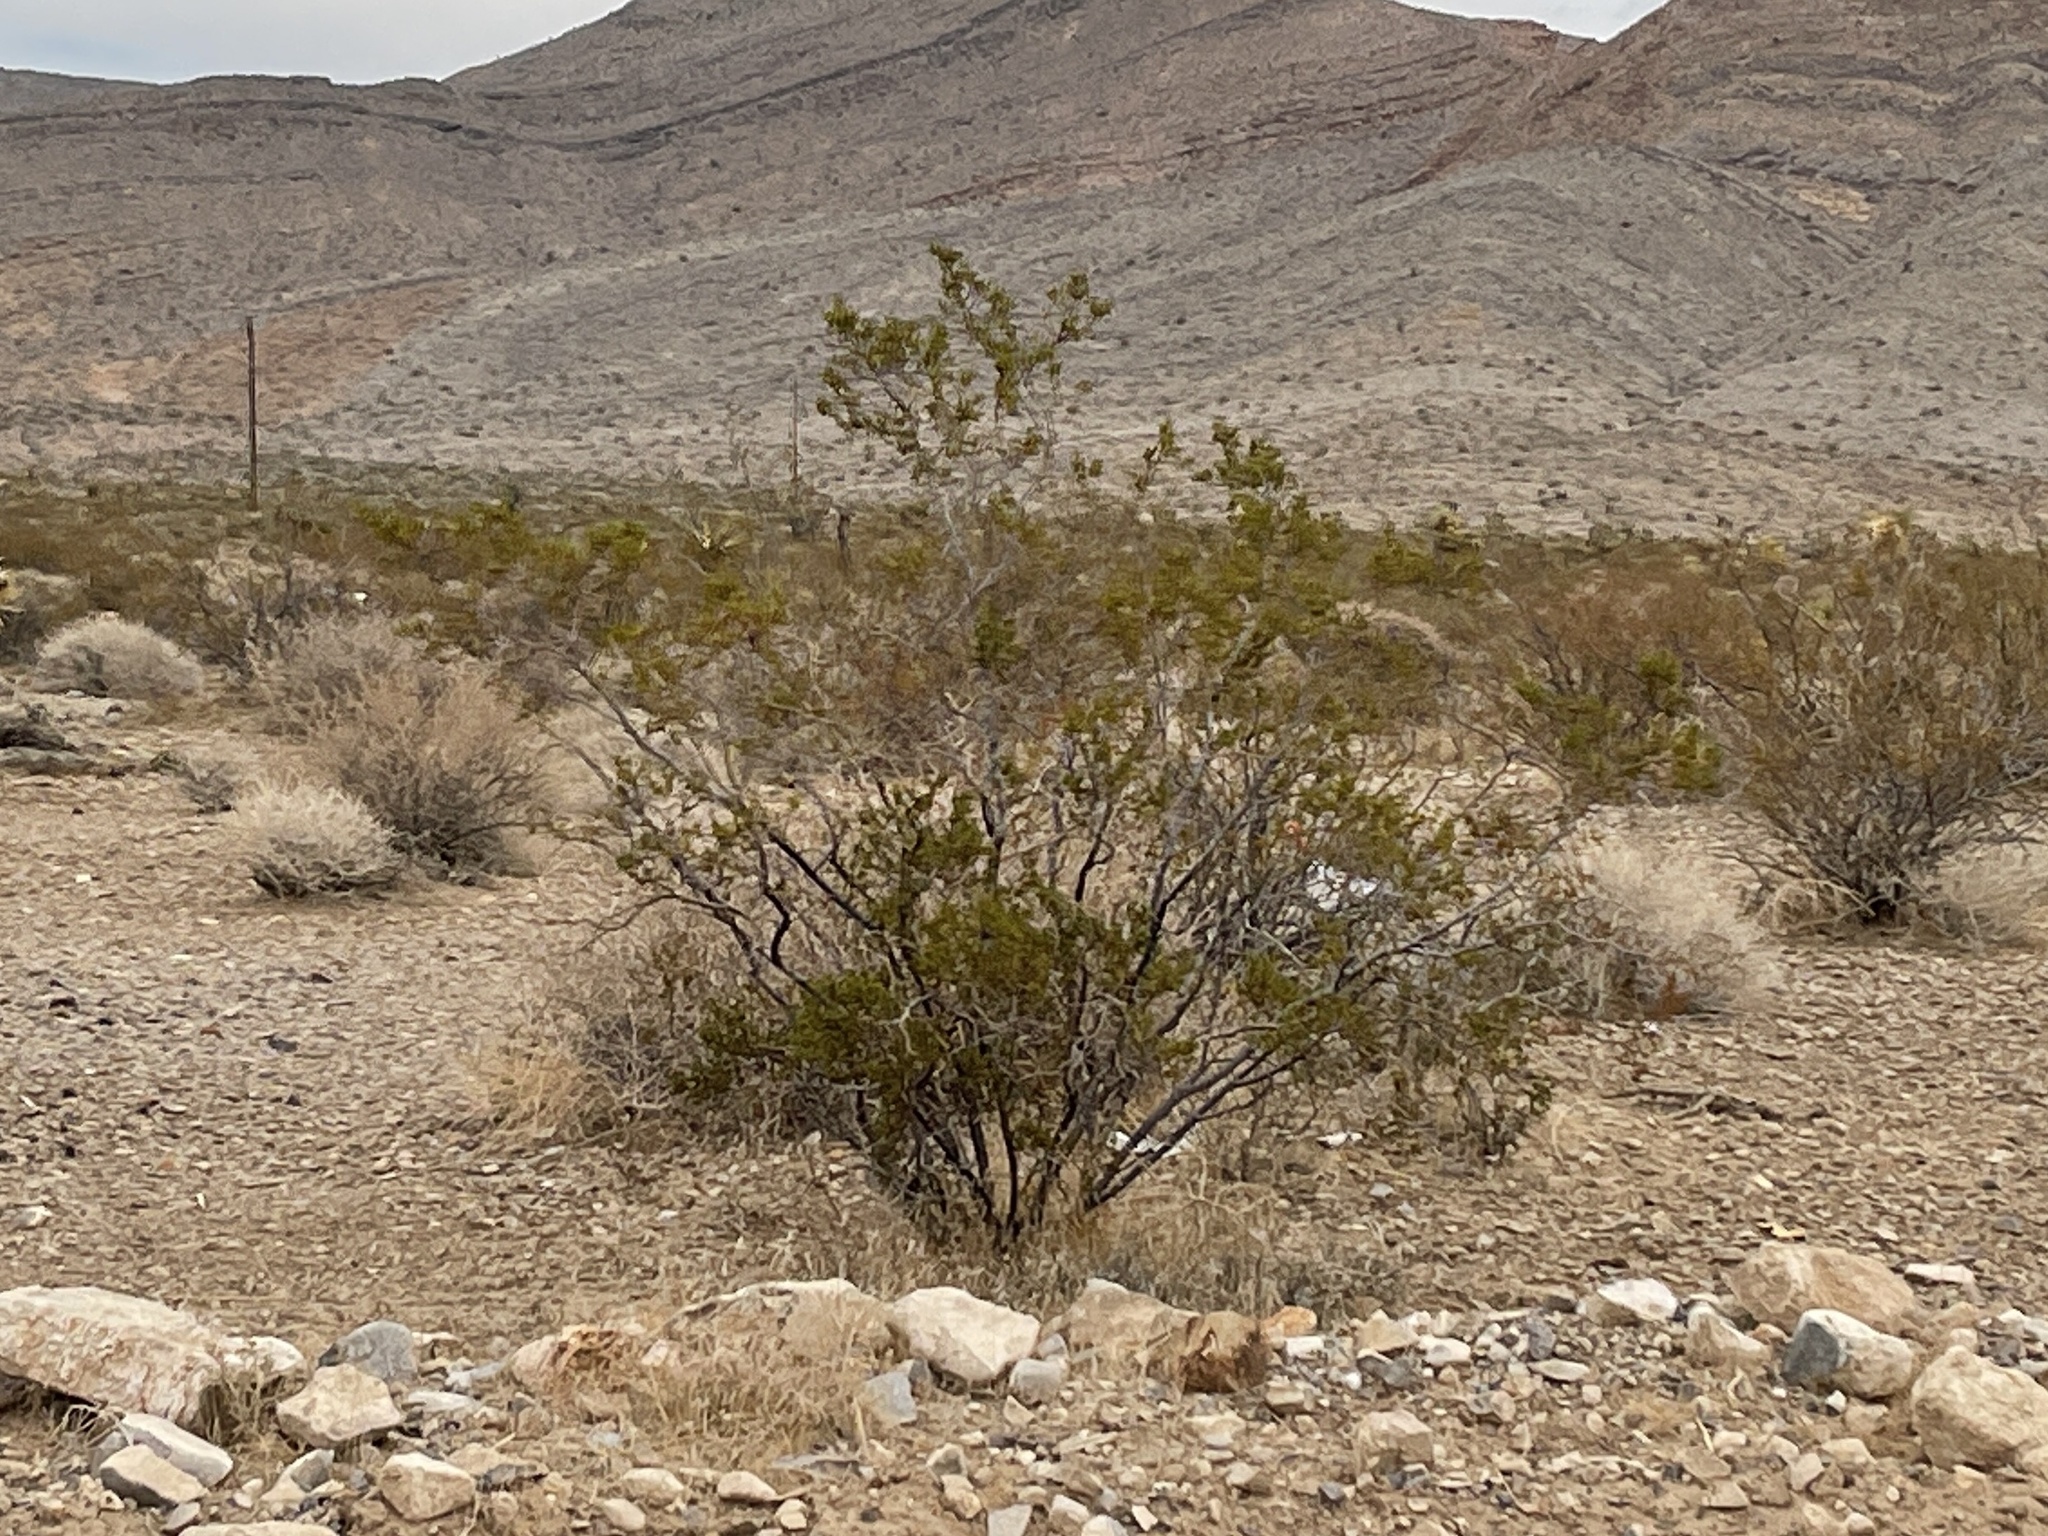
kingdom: Plantae
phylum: Tracheophyta
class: Magnoliopsida
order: Zygophyllales
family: Zygophyllaceae
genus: Larrea
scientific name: Larrea tridentata
